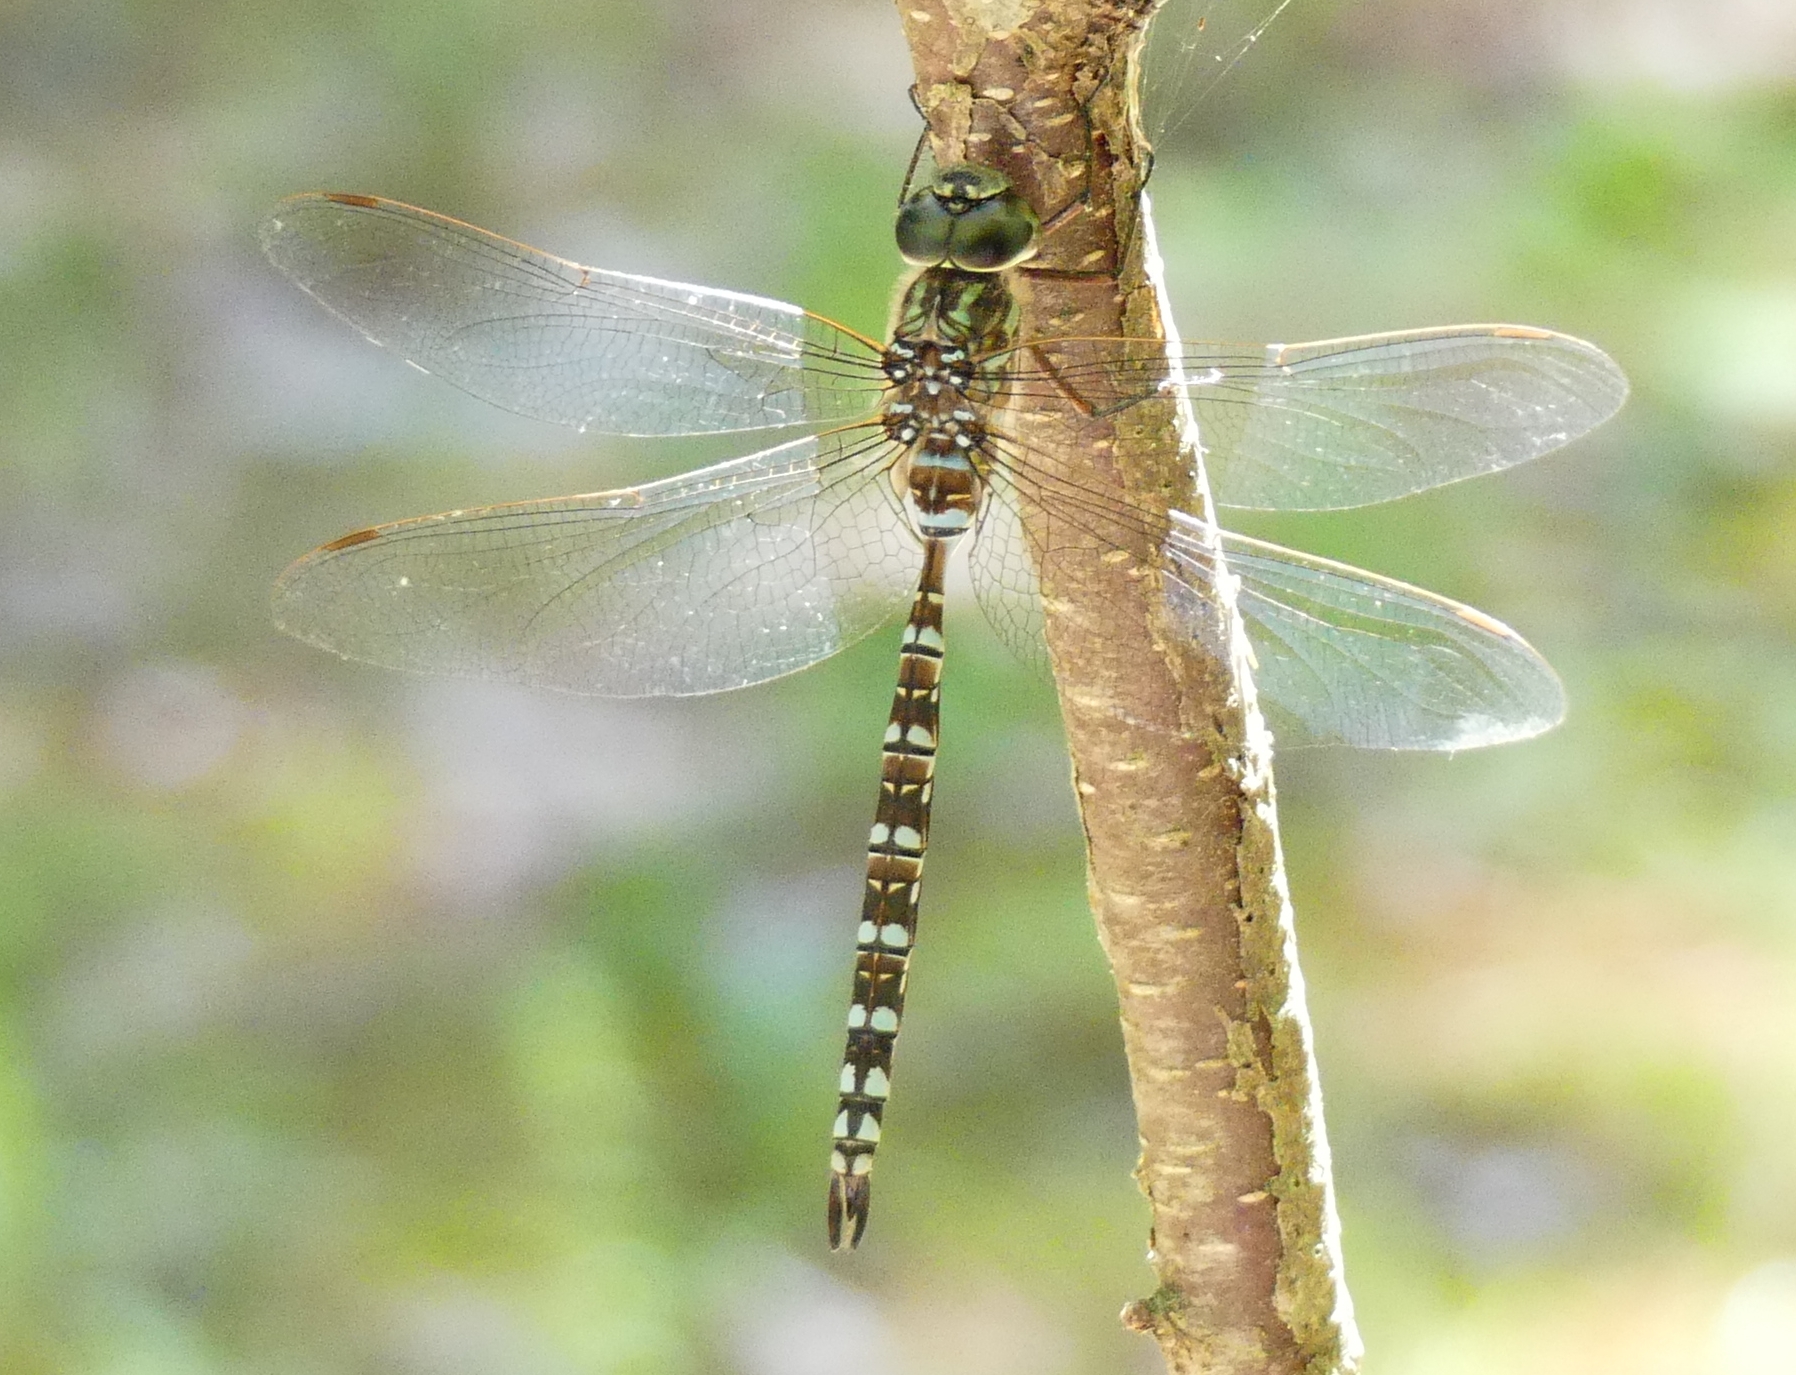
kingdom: Animalia
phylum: Arthropoda
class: Insecta
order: Odonata
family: Aeshnidae
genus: Aeshna
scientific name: Aeshna canadensis
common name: Canada darner
